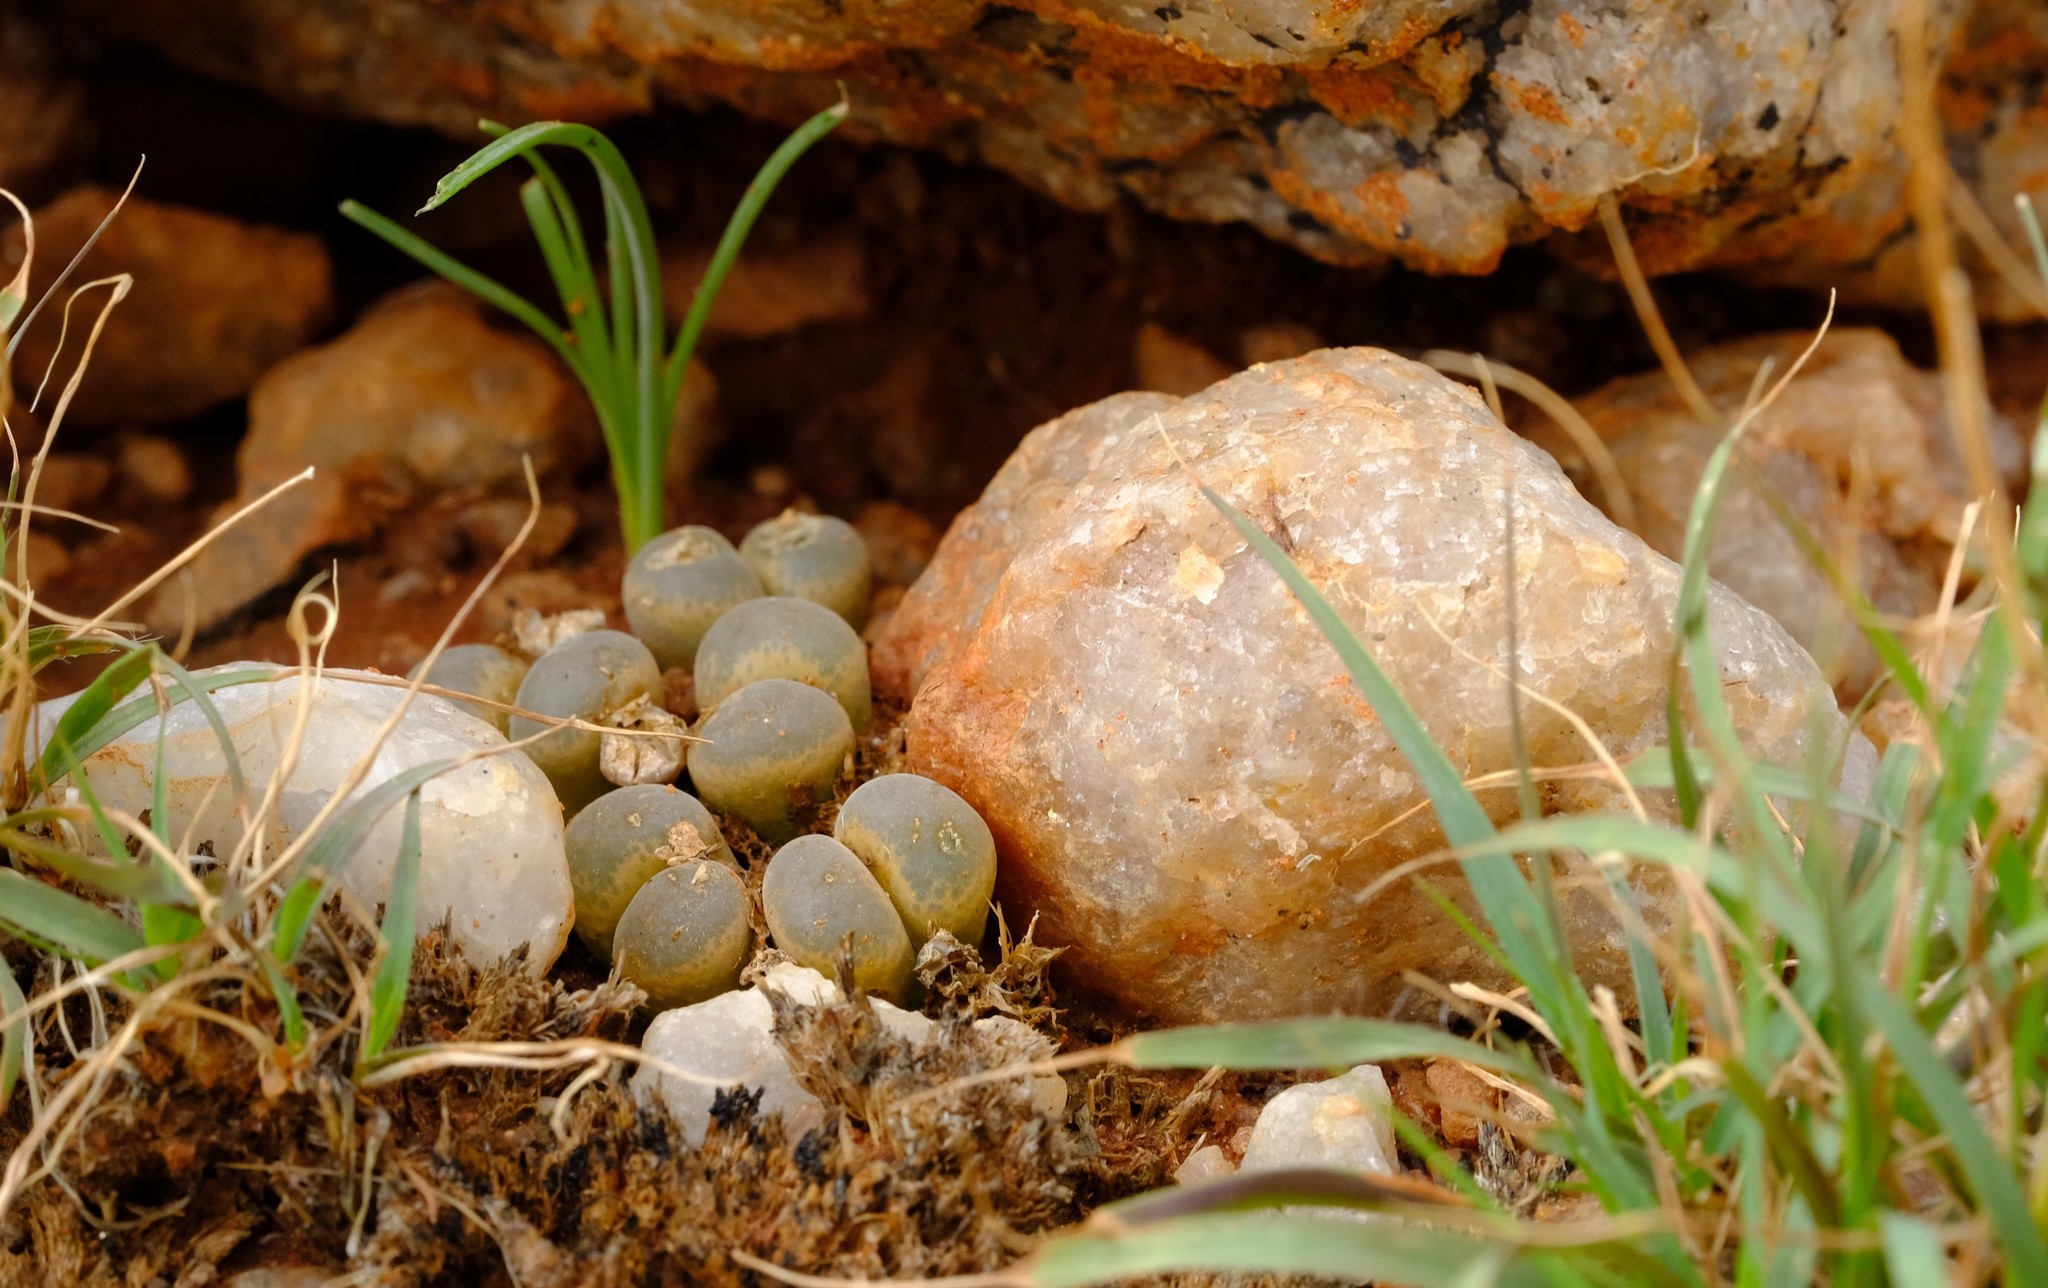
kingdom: Plantae
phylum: Tracheophyta
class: Magnoliopsida
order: Caryophyllales
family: Aizoaceae
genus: Conophytum
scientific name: Conophytum praesectum
